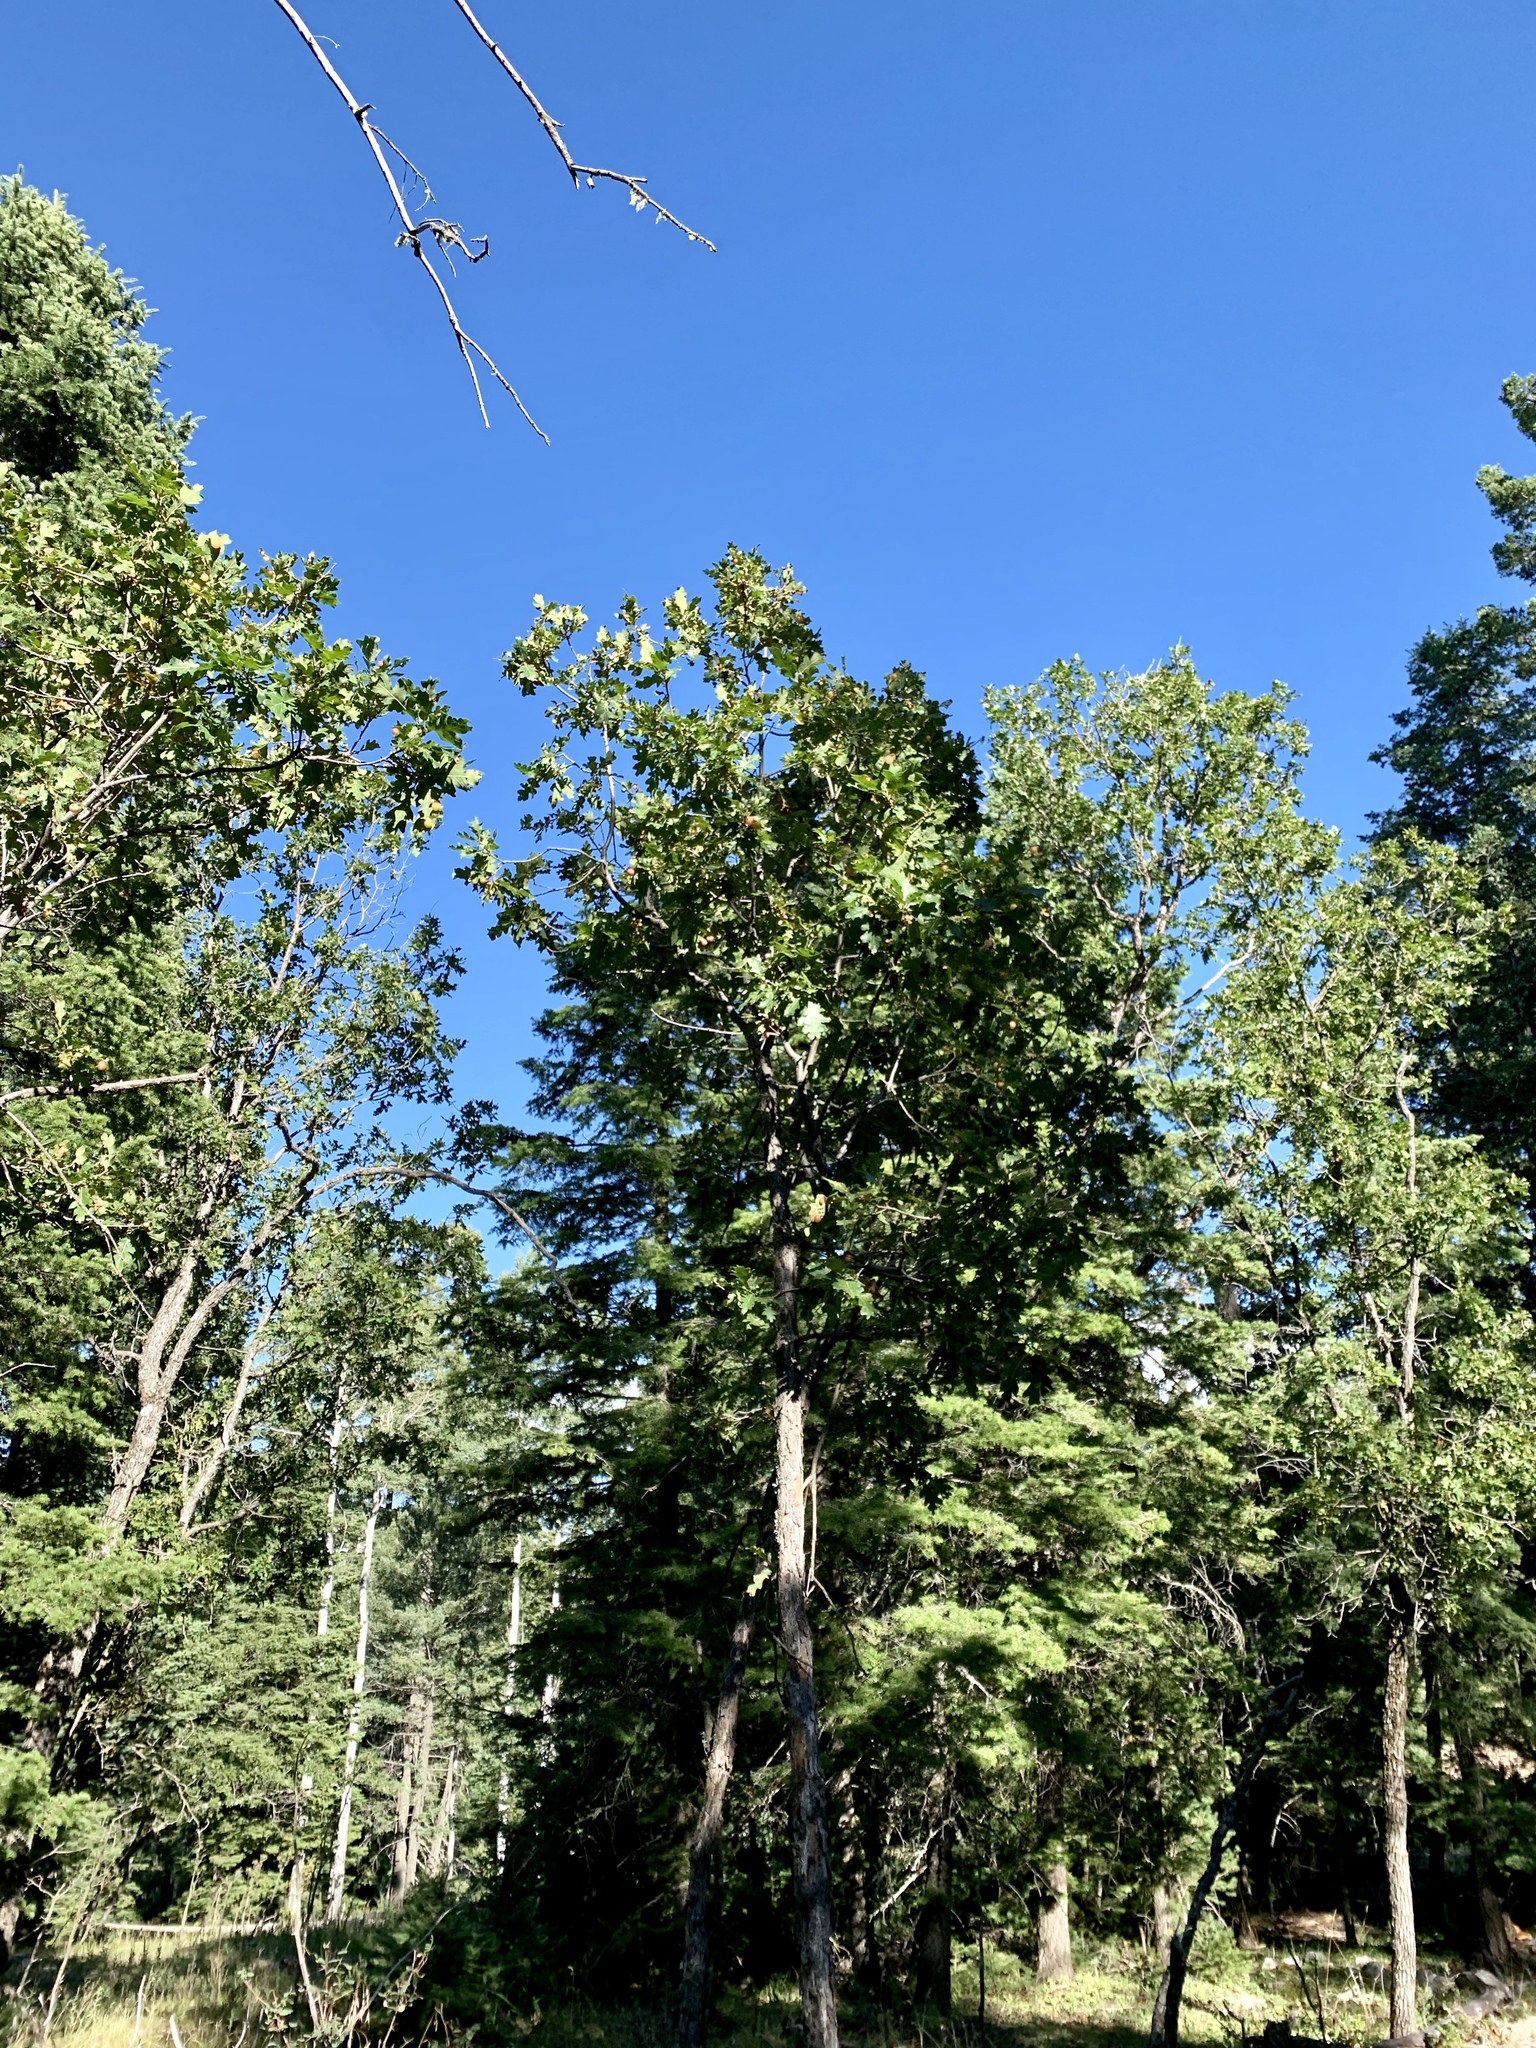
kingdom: Plantae
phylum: Tracheophyta
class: Magnoliopsida
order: Fagales
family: Fagaceae
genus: Quercus
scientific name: Quercus gambelii
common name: Gambel oak
